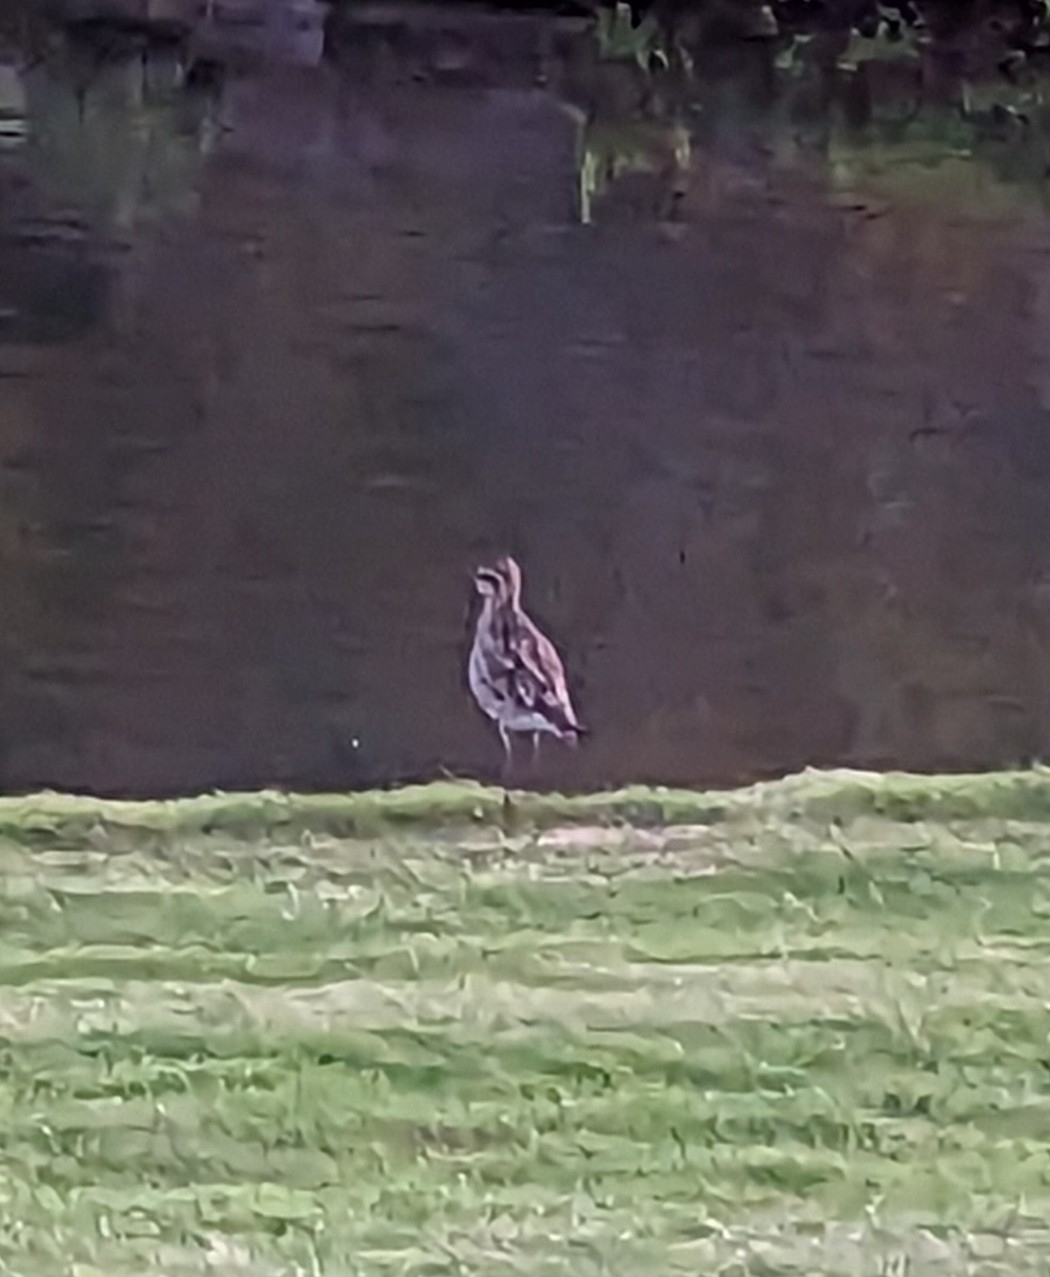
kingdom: Animalia
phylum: Chordata
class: Aves
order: Charadriiformes
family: Charadriidae
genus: Pluvialis
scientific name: Pluvialis fulva
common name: Pacific golden plover
